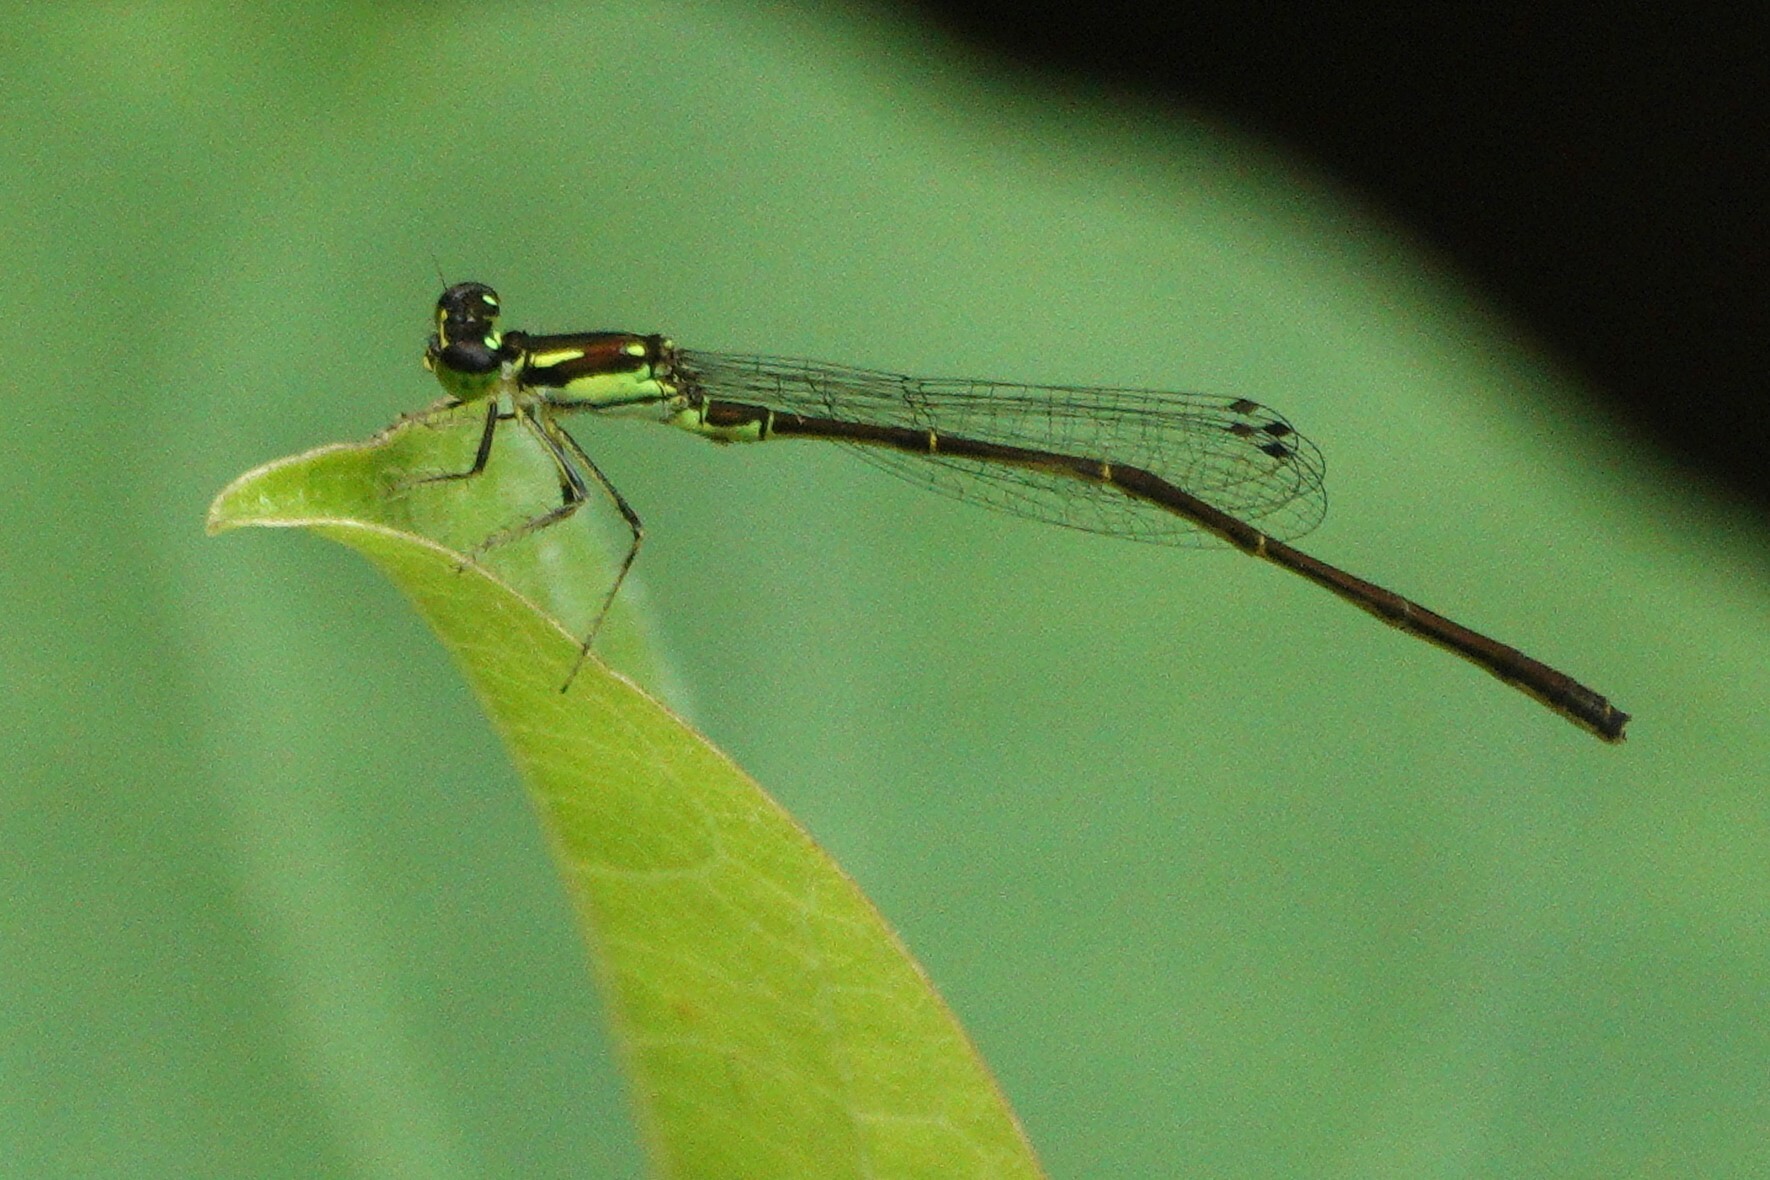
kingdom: Animalia
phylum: Arthropoda
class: Insecta
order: Odonata
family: Coenagrionidae
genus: Ischnura
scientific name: Ischnura posita
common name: Fragile forktail
